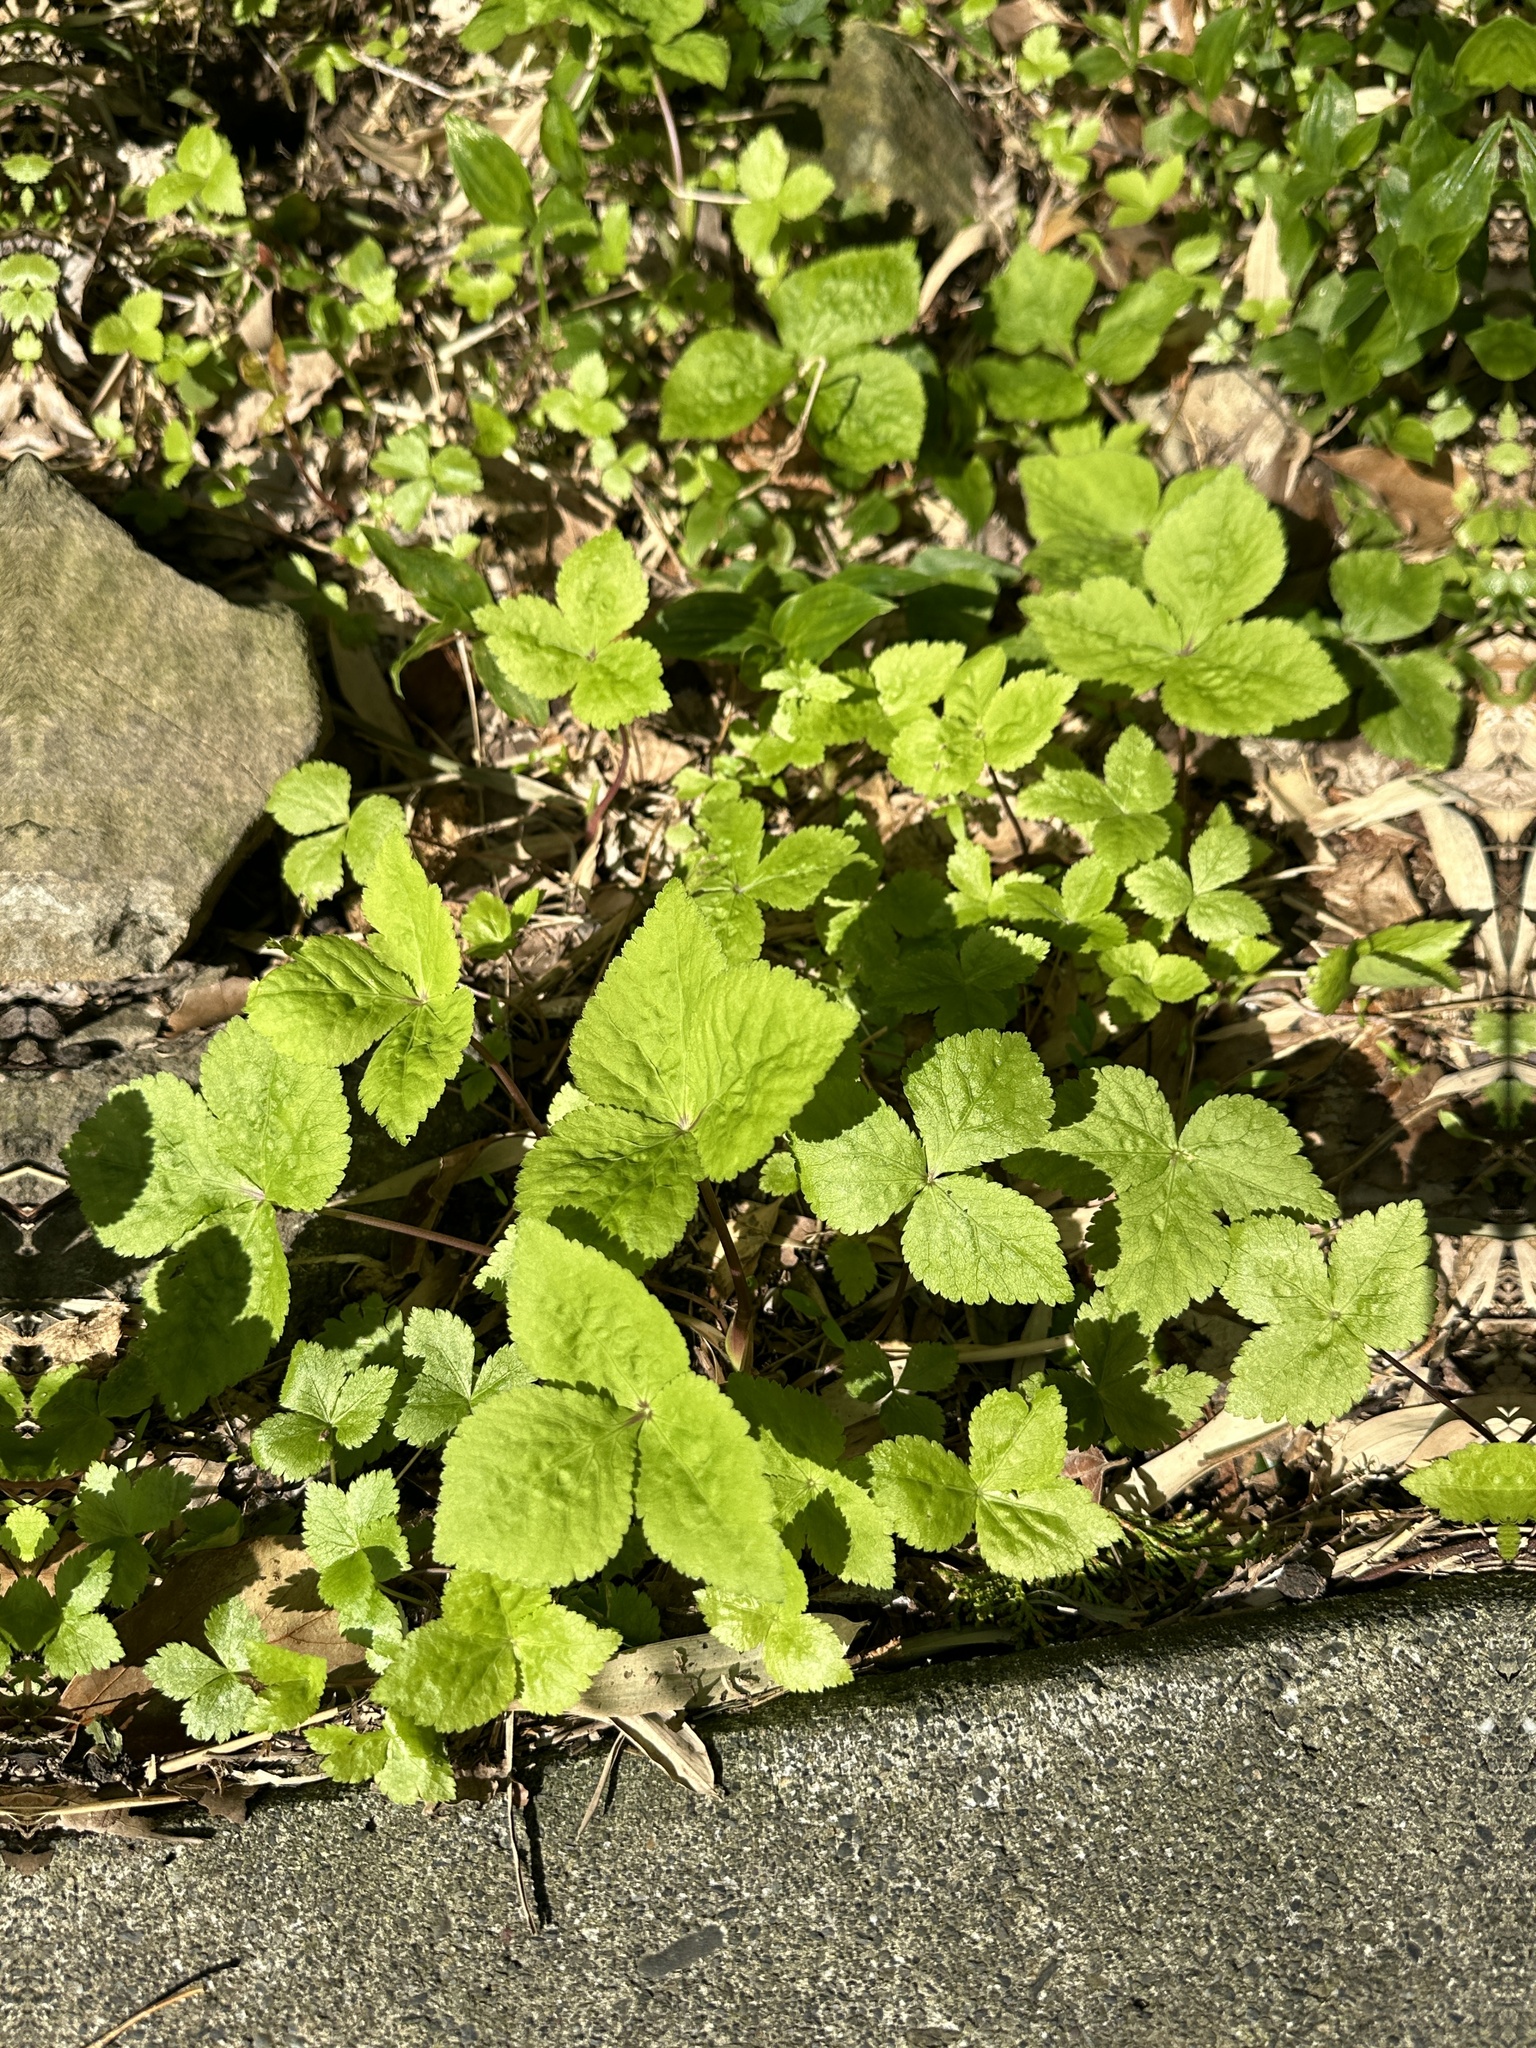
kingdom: Plantae
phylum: Tracheophyta
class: Magnoliopsida
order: Apiales
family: Apiaceae
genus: Cryptotaenia
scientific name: Cryptotaenia japonica
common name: Japanese cryptotaenia
